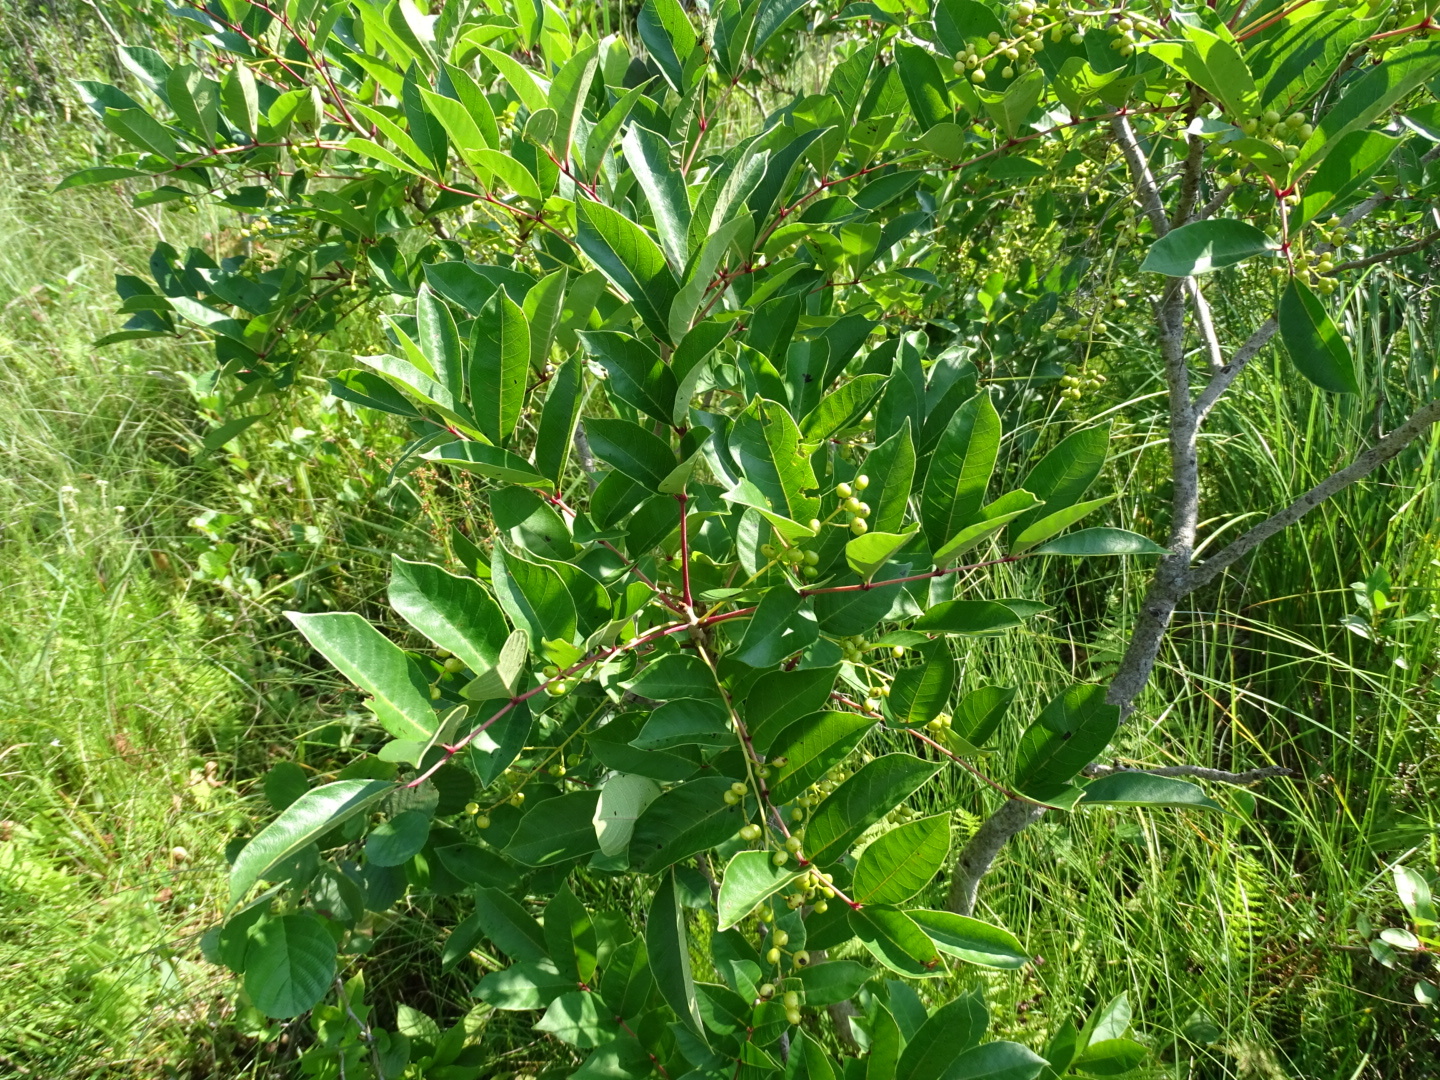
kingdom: Plantae
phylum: Tracheophyta
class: Magnoliopsida
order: Sapindales
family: Anacardiaceae
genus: Toxicodendron
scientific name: Toxicodendron vernix
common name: Poison sumac
